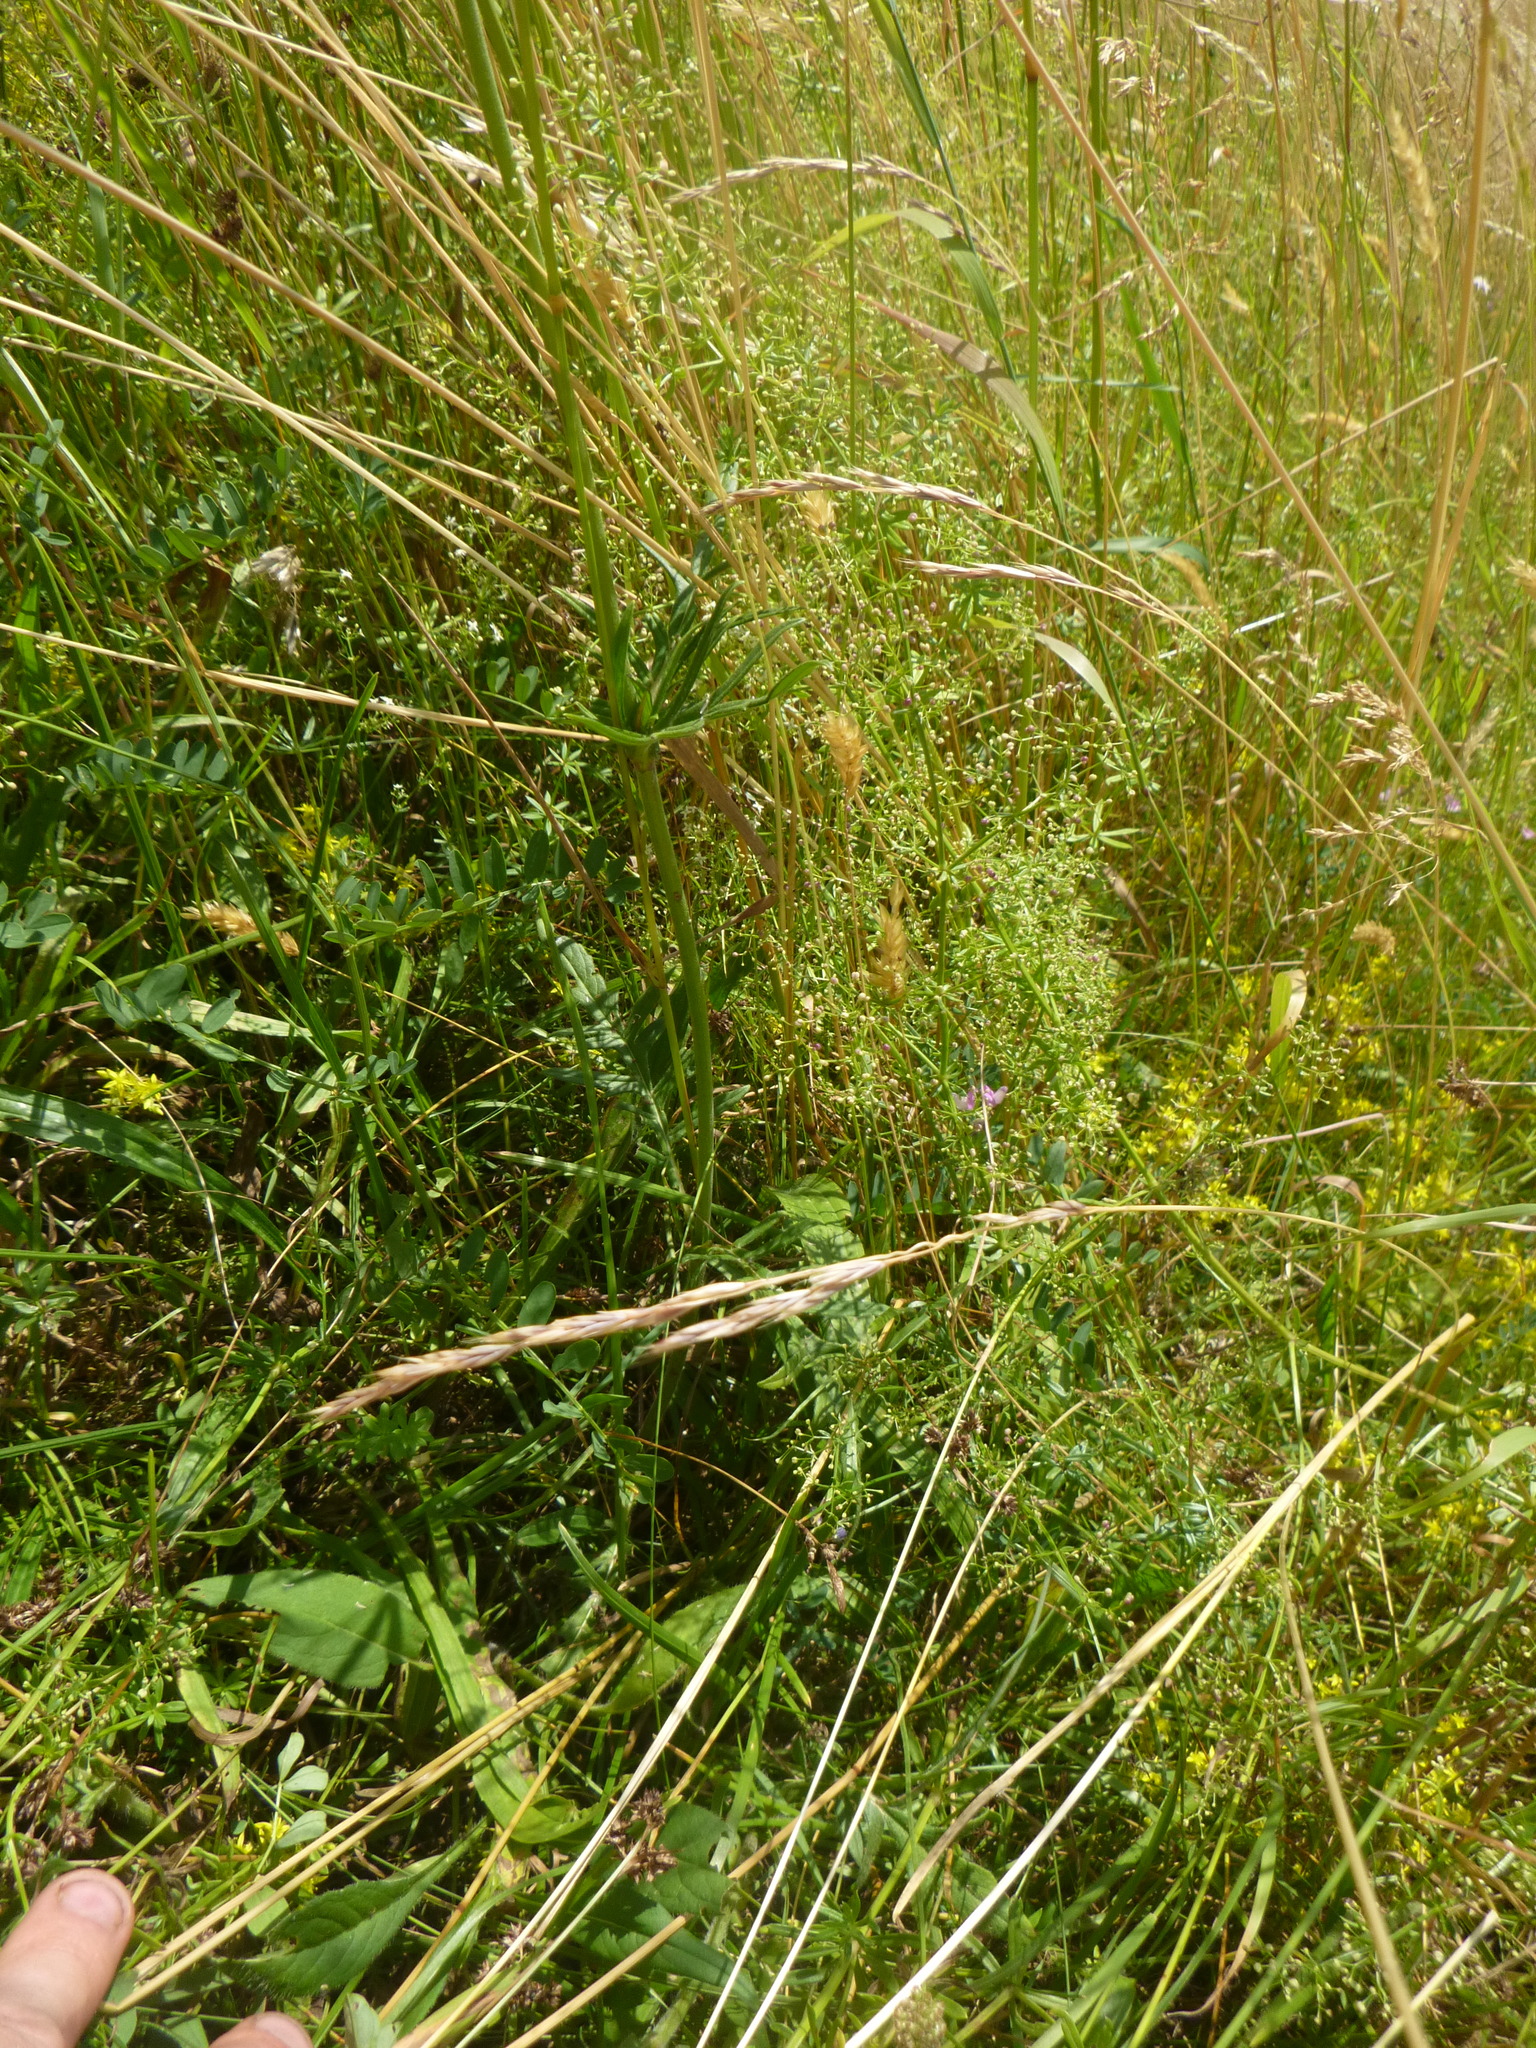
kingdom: Plantae
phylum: Tracheophyta
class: Magnoliopsida
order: Dipsacales
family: Caprifoliaceae
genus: Knautia
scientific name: Knautia arvensis
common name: Field scabiosa
